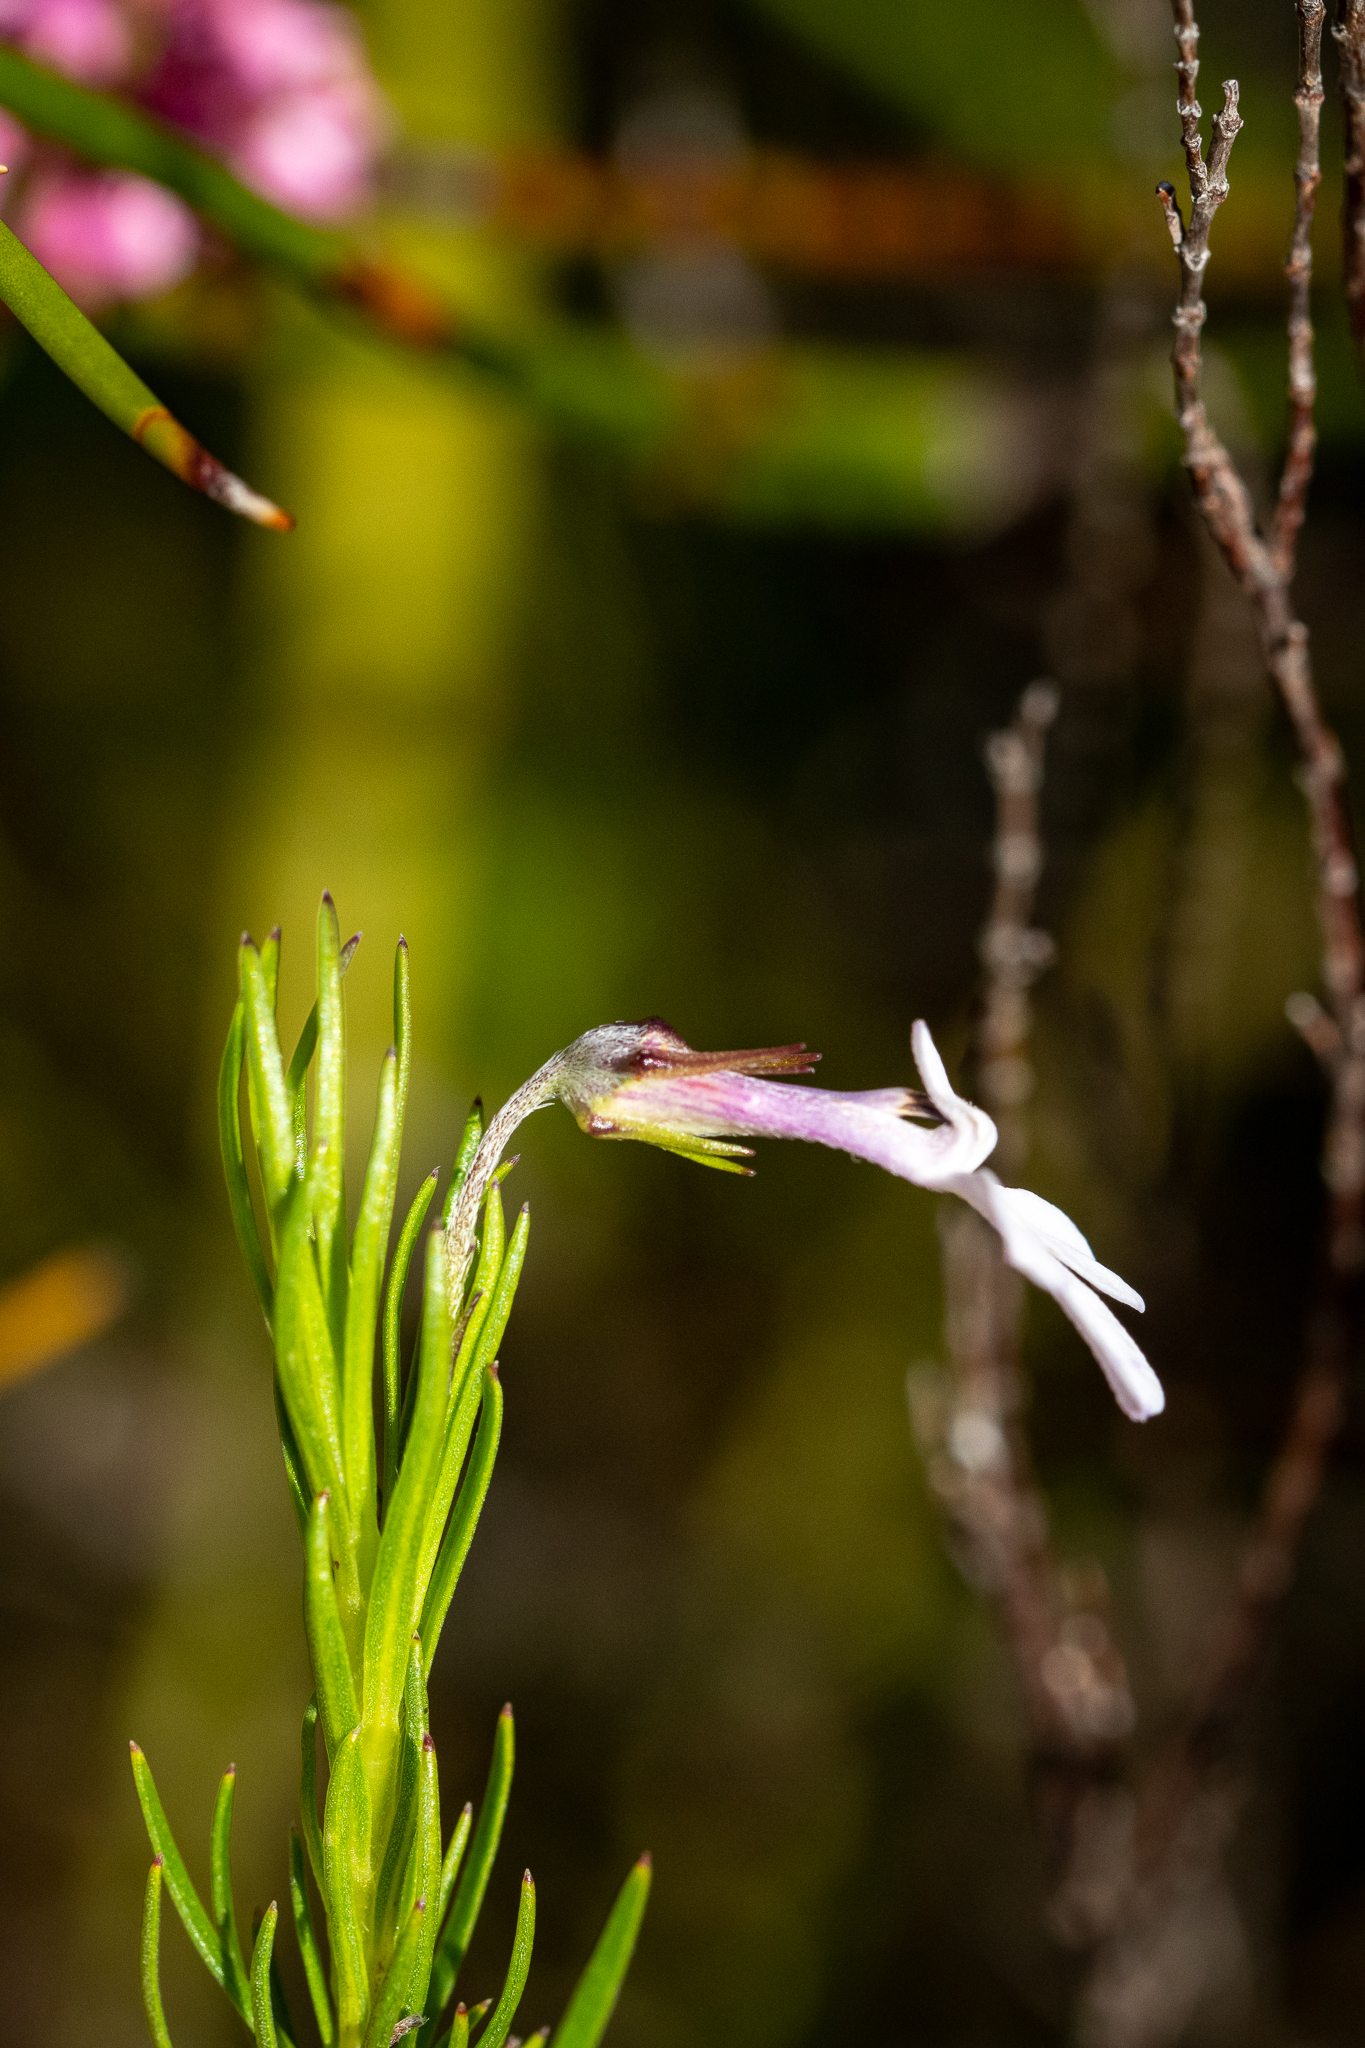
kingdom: Plantae
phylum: Tracheophyta
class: Magnoliopsida
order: Asterales
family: Campanulaceae
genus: Lobelia
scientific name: Lobelia pinifolia
